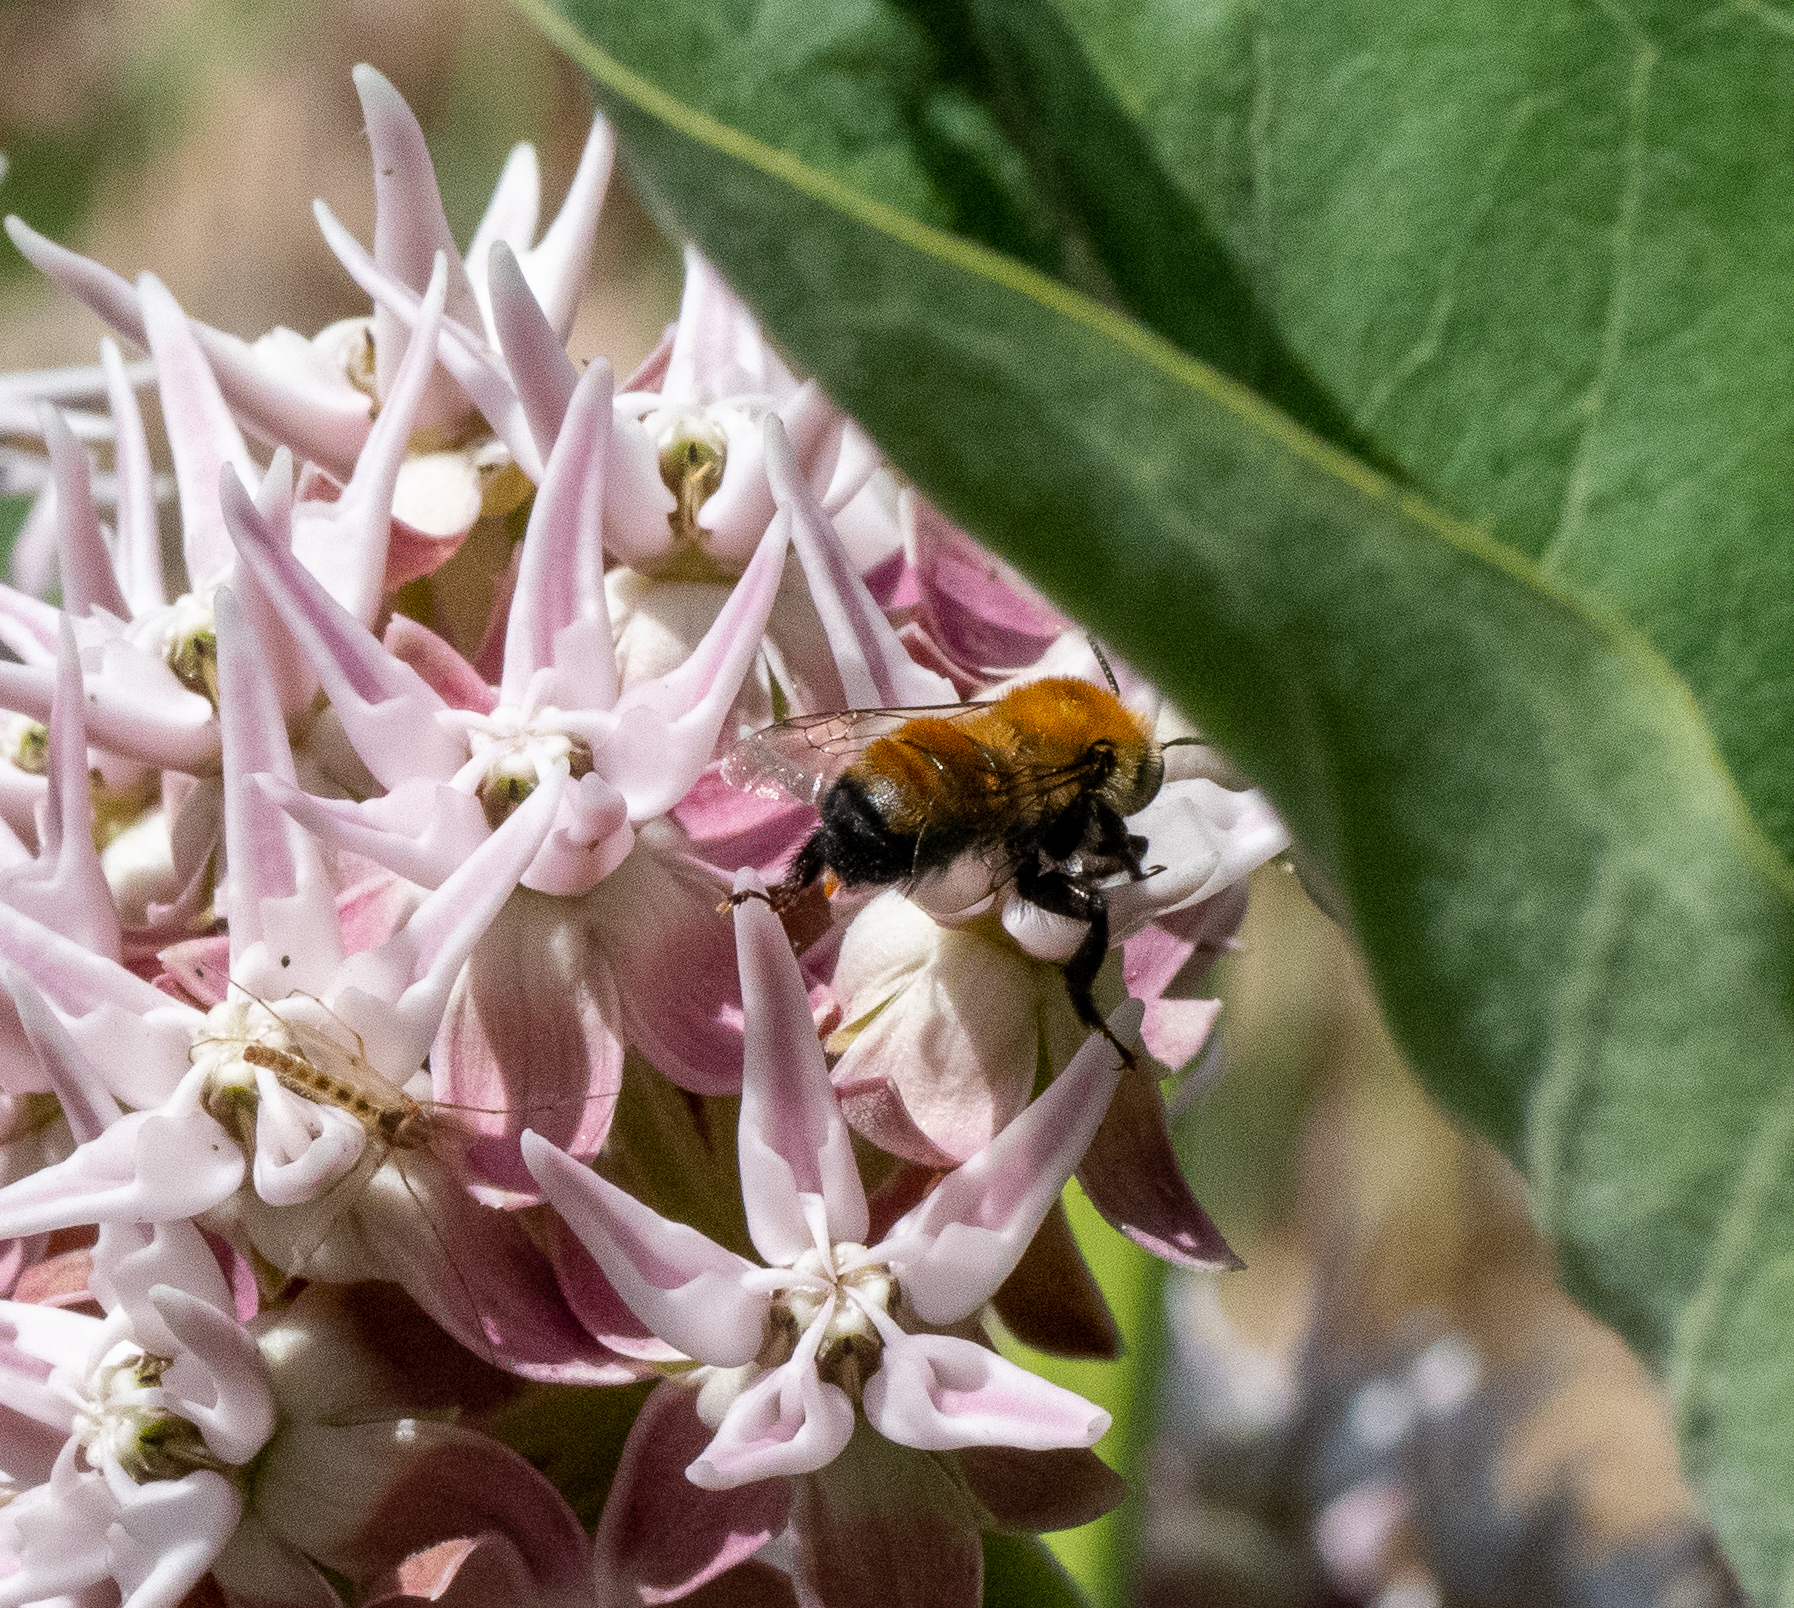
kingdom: Animalia
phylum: Arthropoda
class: Insecta
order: Hymenoptera
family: Apidae
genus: Anthophora
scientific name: Anthophora bomboides
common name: Bumble-bee-mimic digger bee
